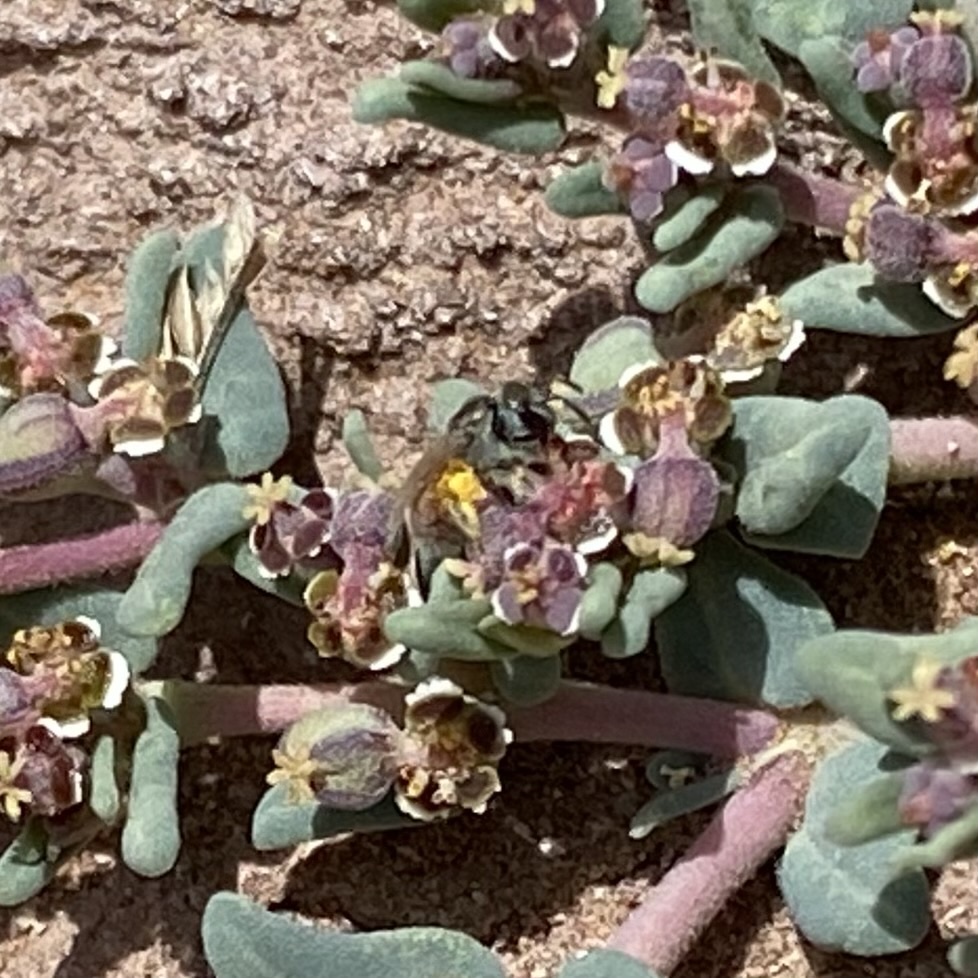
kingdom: Animalia
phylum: Arthropoda
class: Insecta
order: Hymenoptera
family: Halictidae
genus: Dialictus
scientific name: Dialictus
